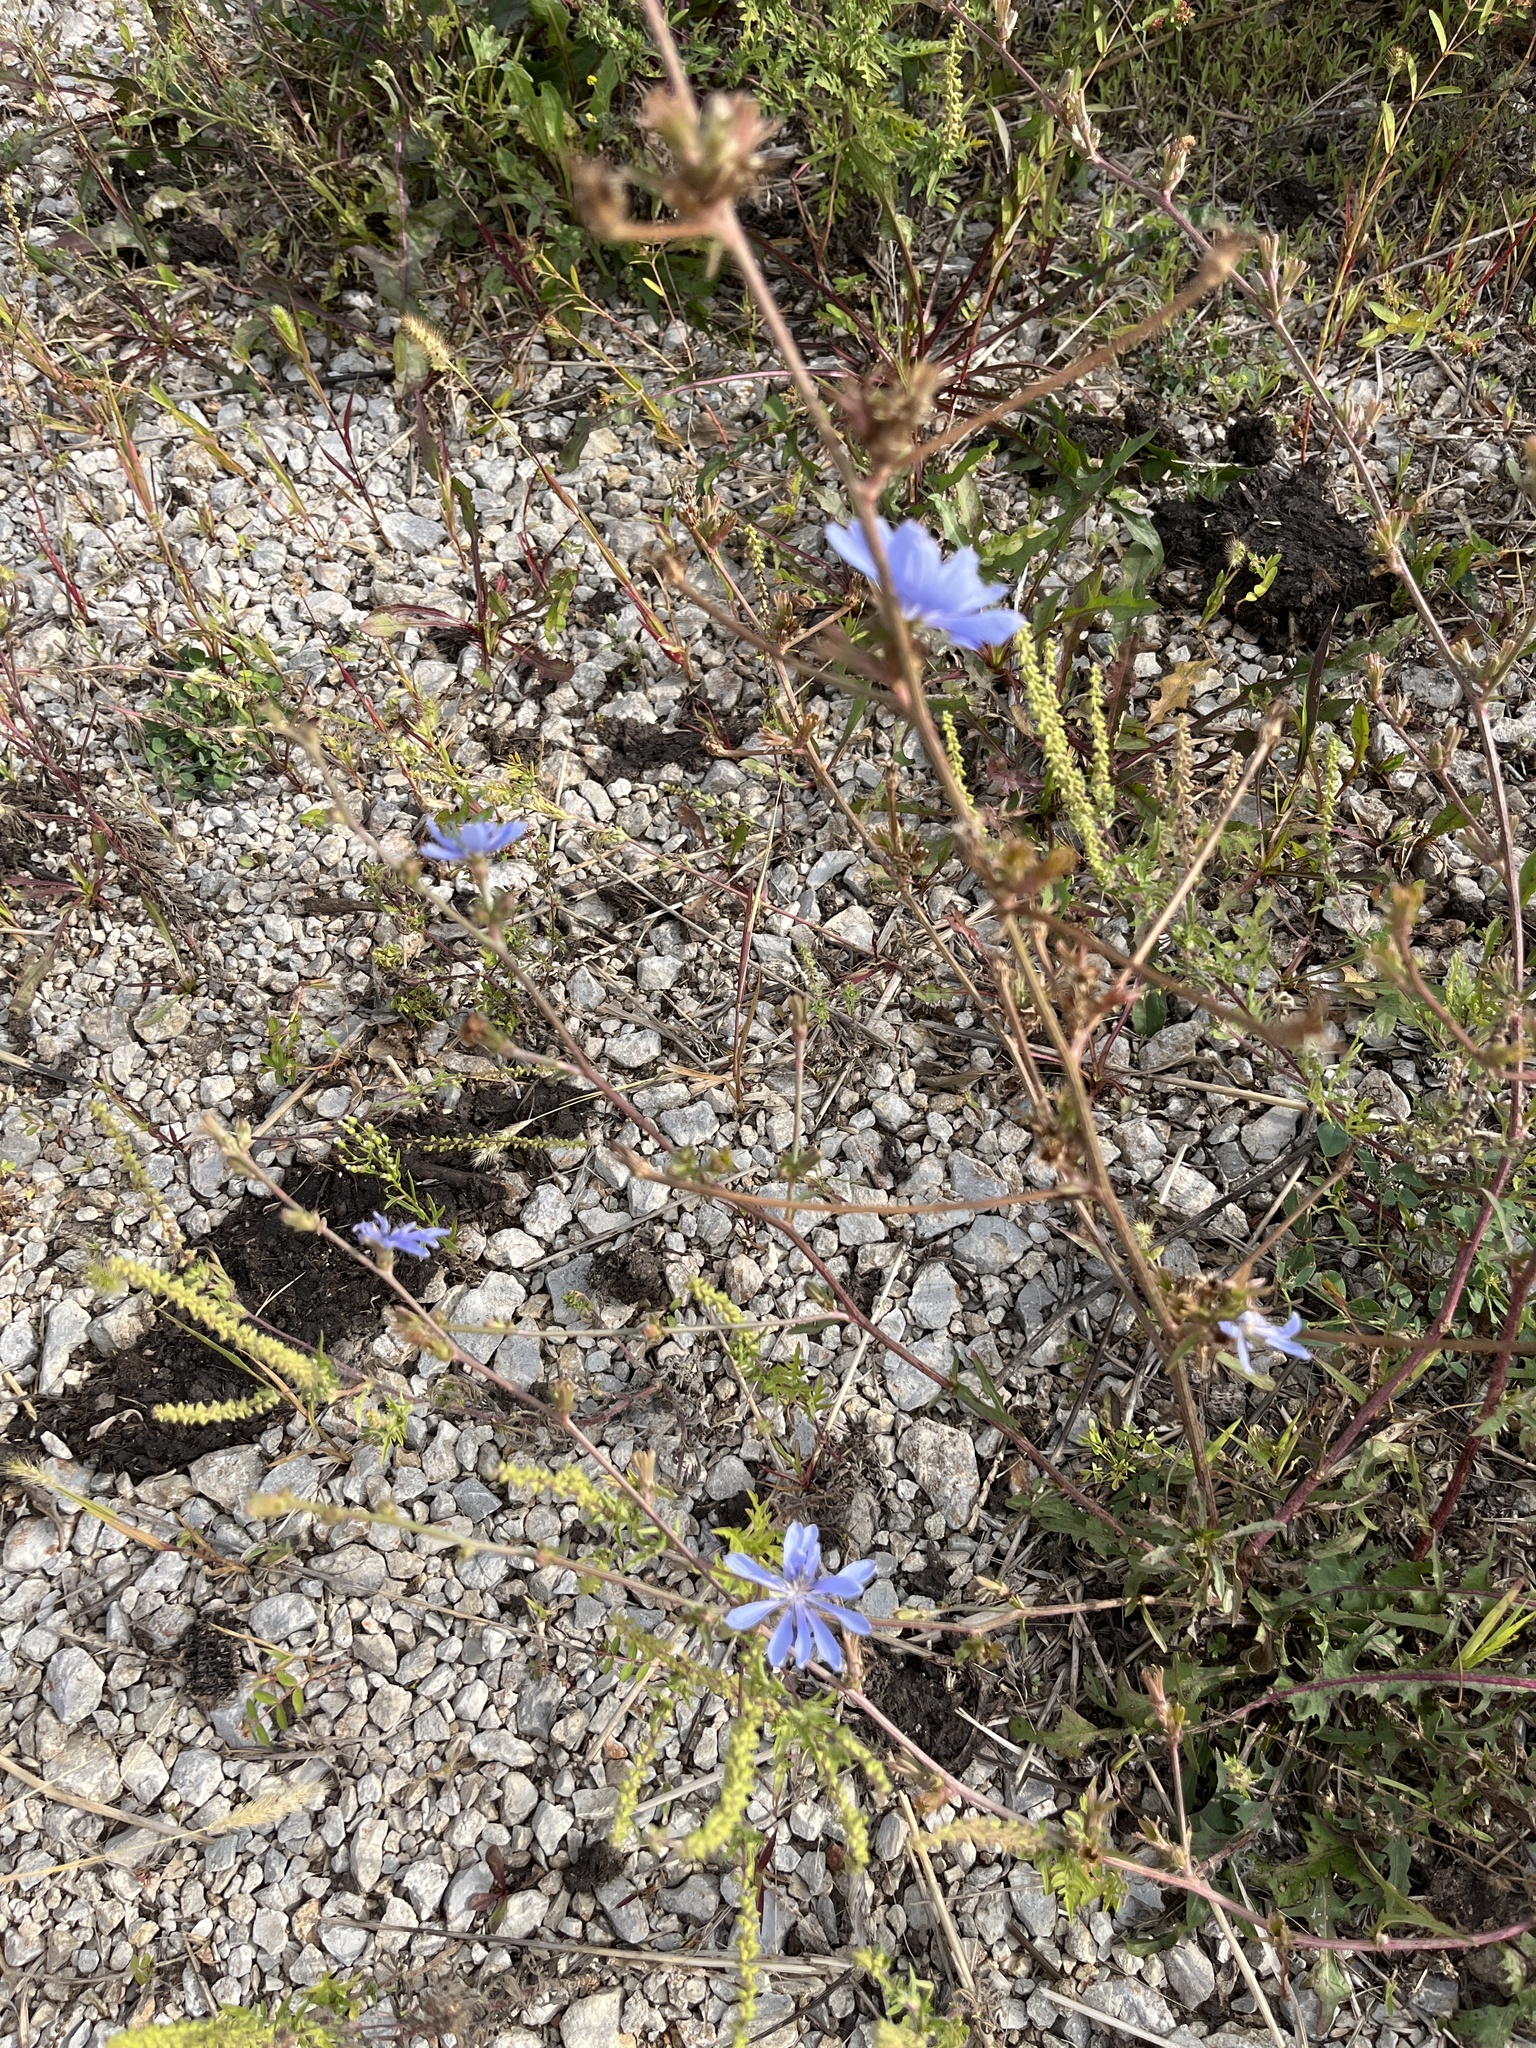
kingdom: Plantae
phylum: Tracheophyta
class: Magnoliopsida
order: Asterales
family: Asteraceae
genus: Cichorium
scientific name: Cichorium intybus
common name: Chicory
